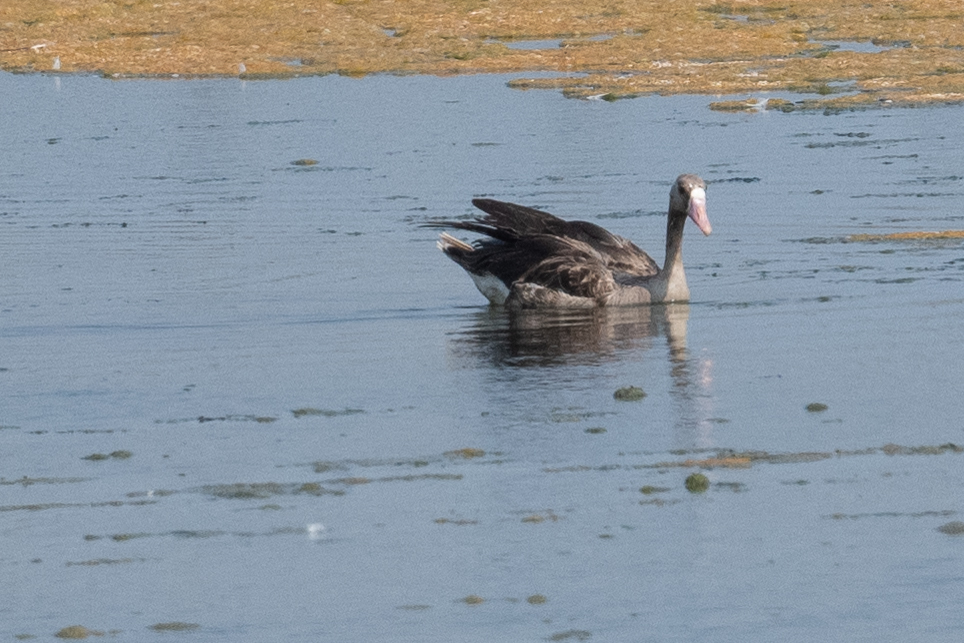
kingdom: Animalia
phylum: Chordata
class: Aves
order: Anseriformes
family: Anatidae
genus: Anser
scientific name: Anser albifrons
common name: Greater white-fronted goose
